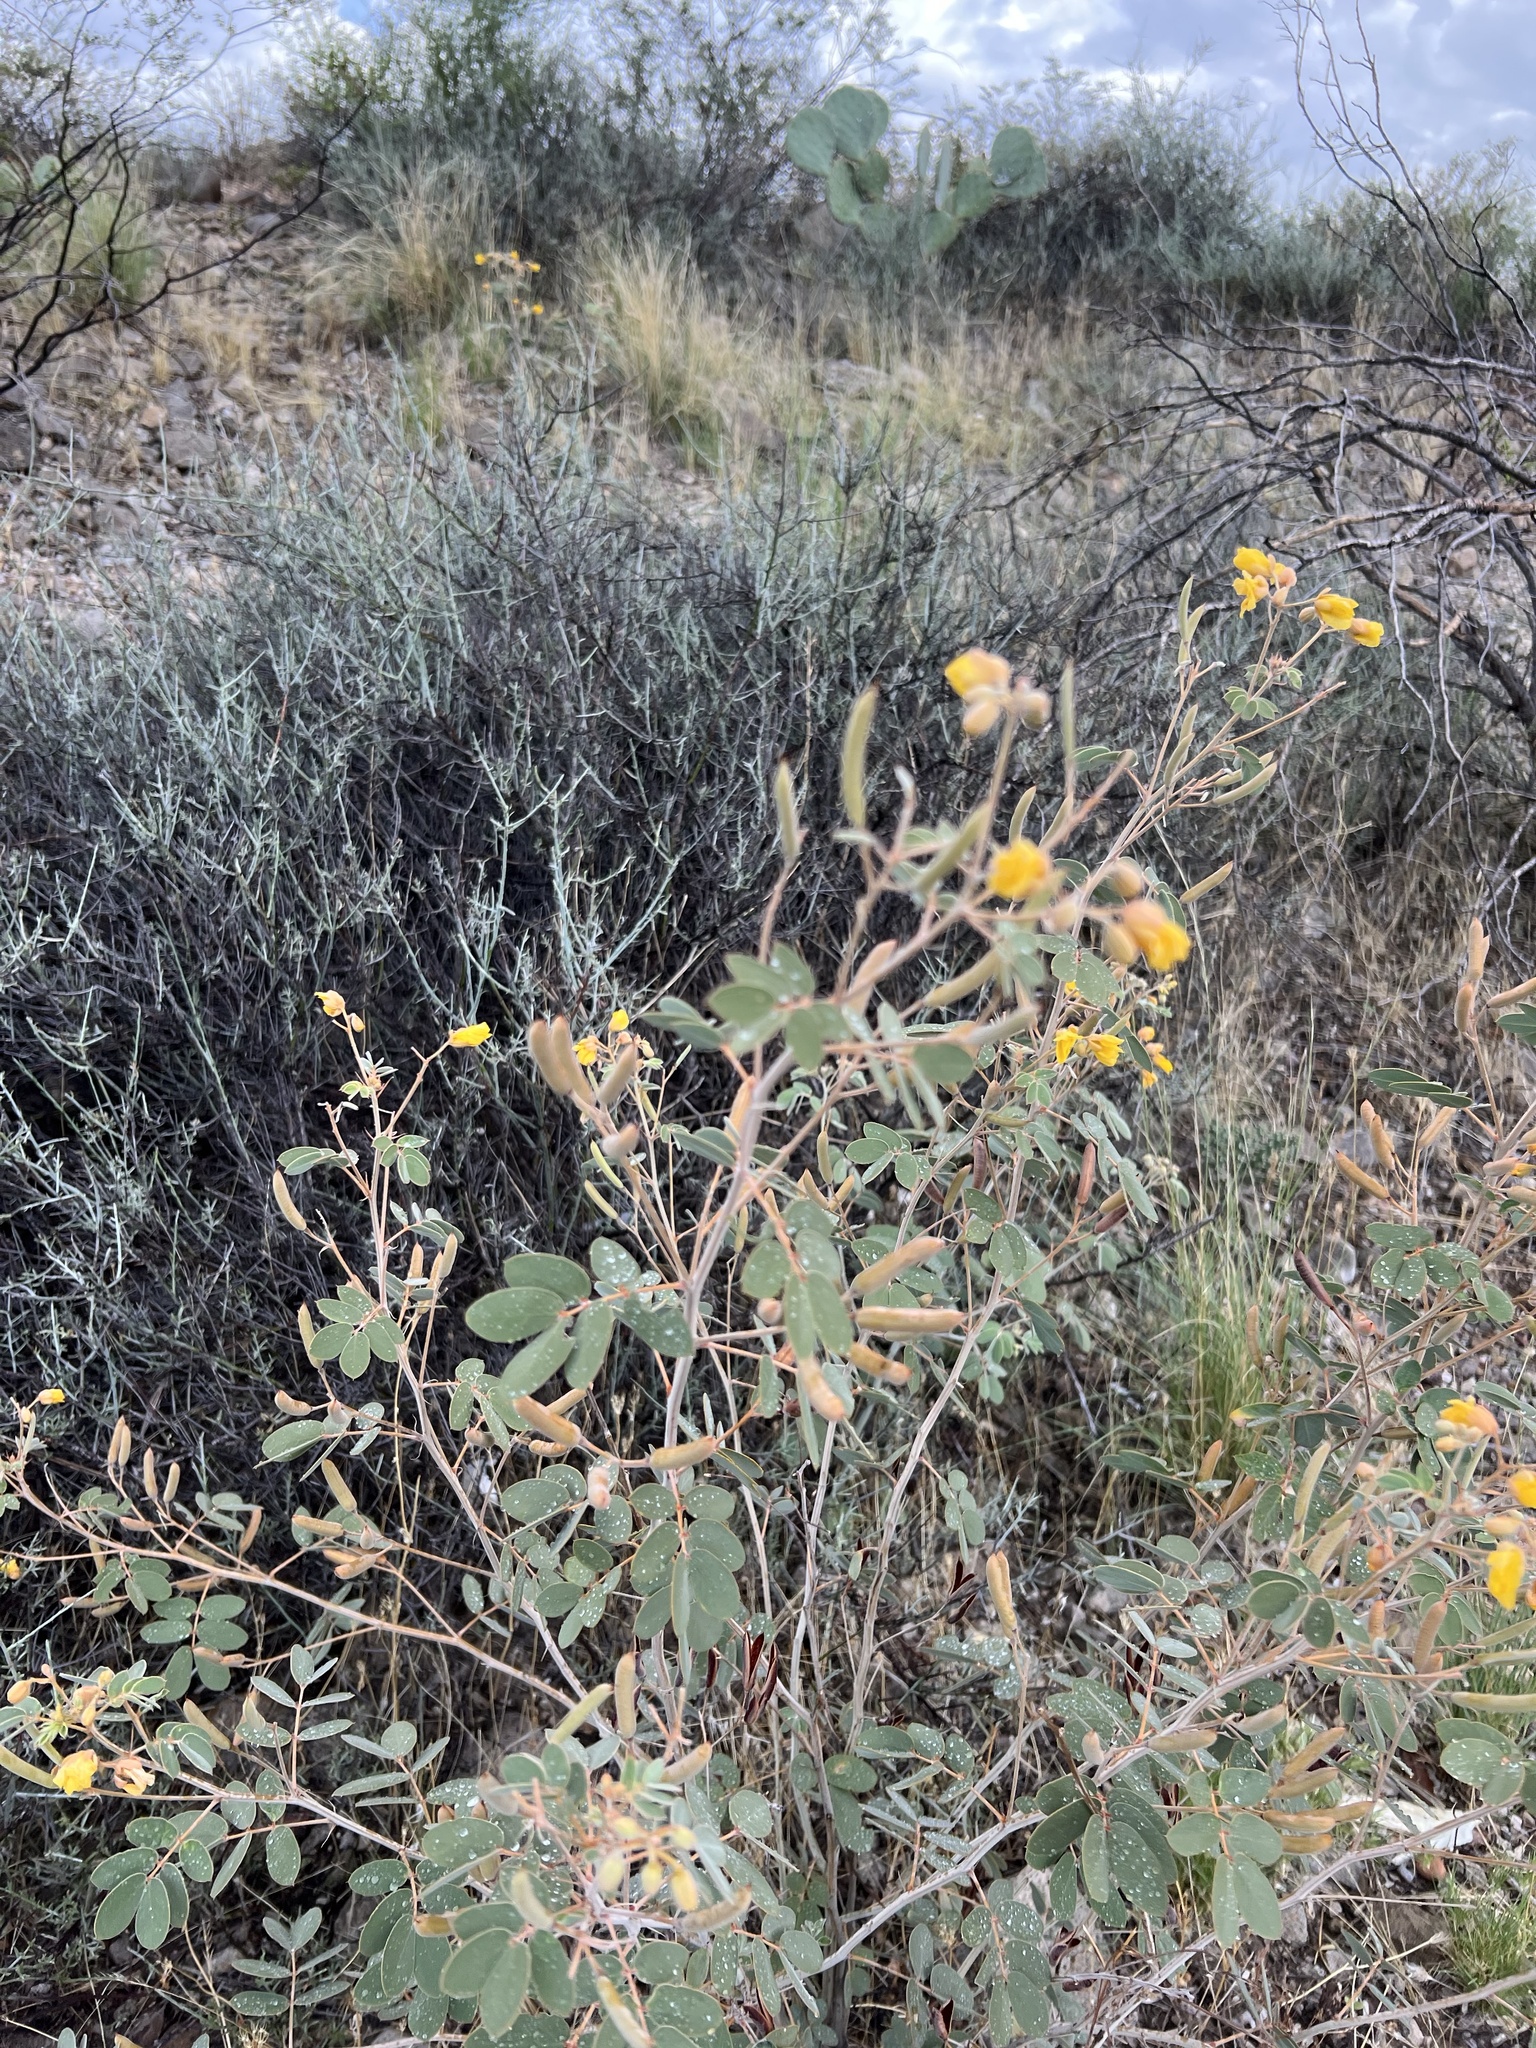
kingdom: Plantae
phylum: Tracheophyta
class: Magnoliopsida
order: Fabales
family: Fabaceae
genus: Senna
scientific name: Senna covesii
